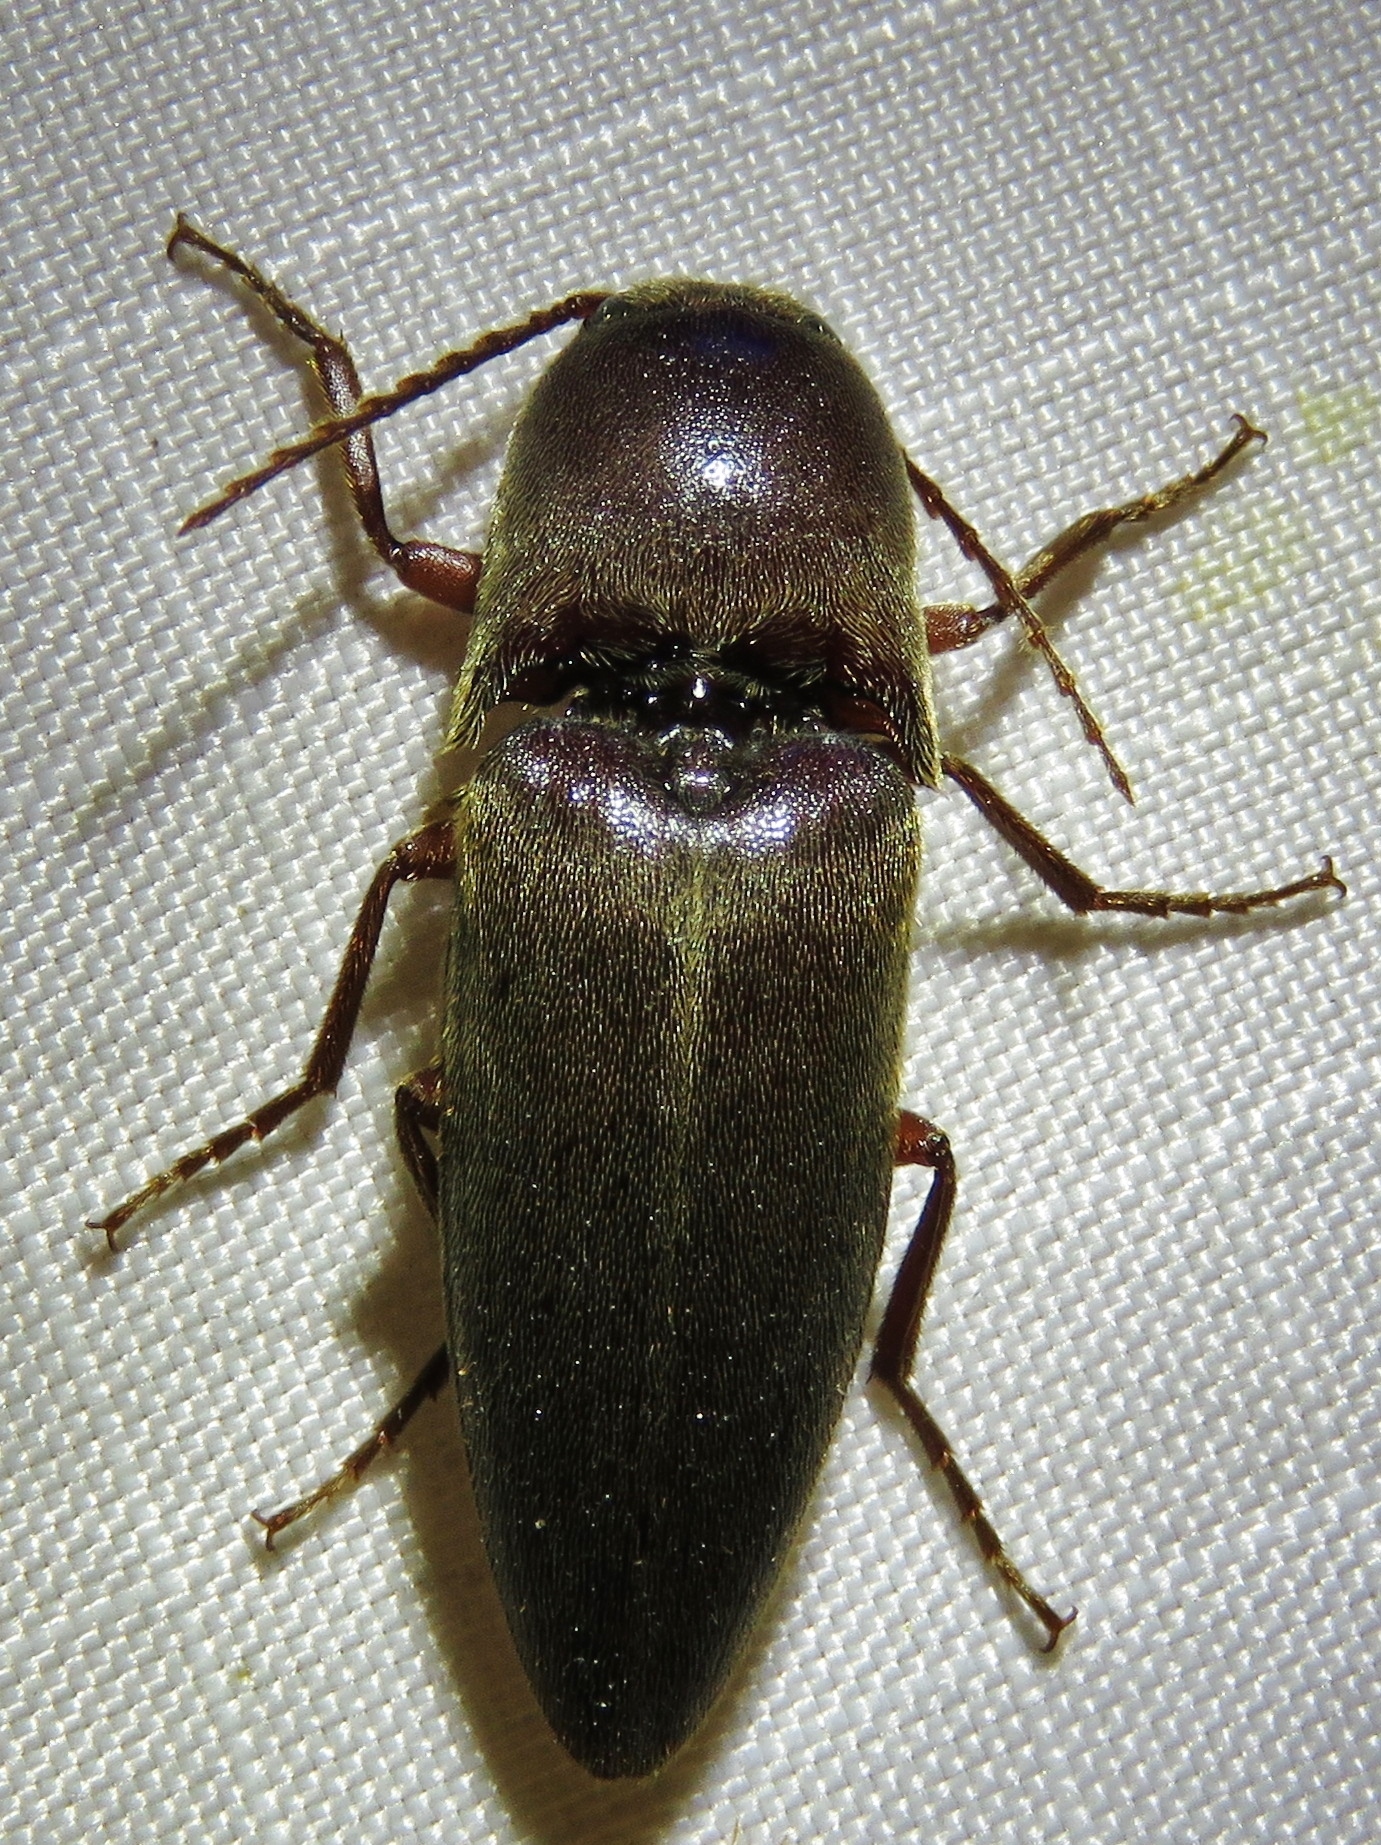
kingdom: Animalia
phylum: Arthropoda
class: Insecta
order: Coleoptera
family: Elateridae
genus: Diplostethus
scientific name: Diplostethus
